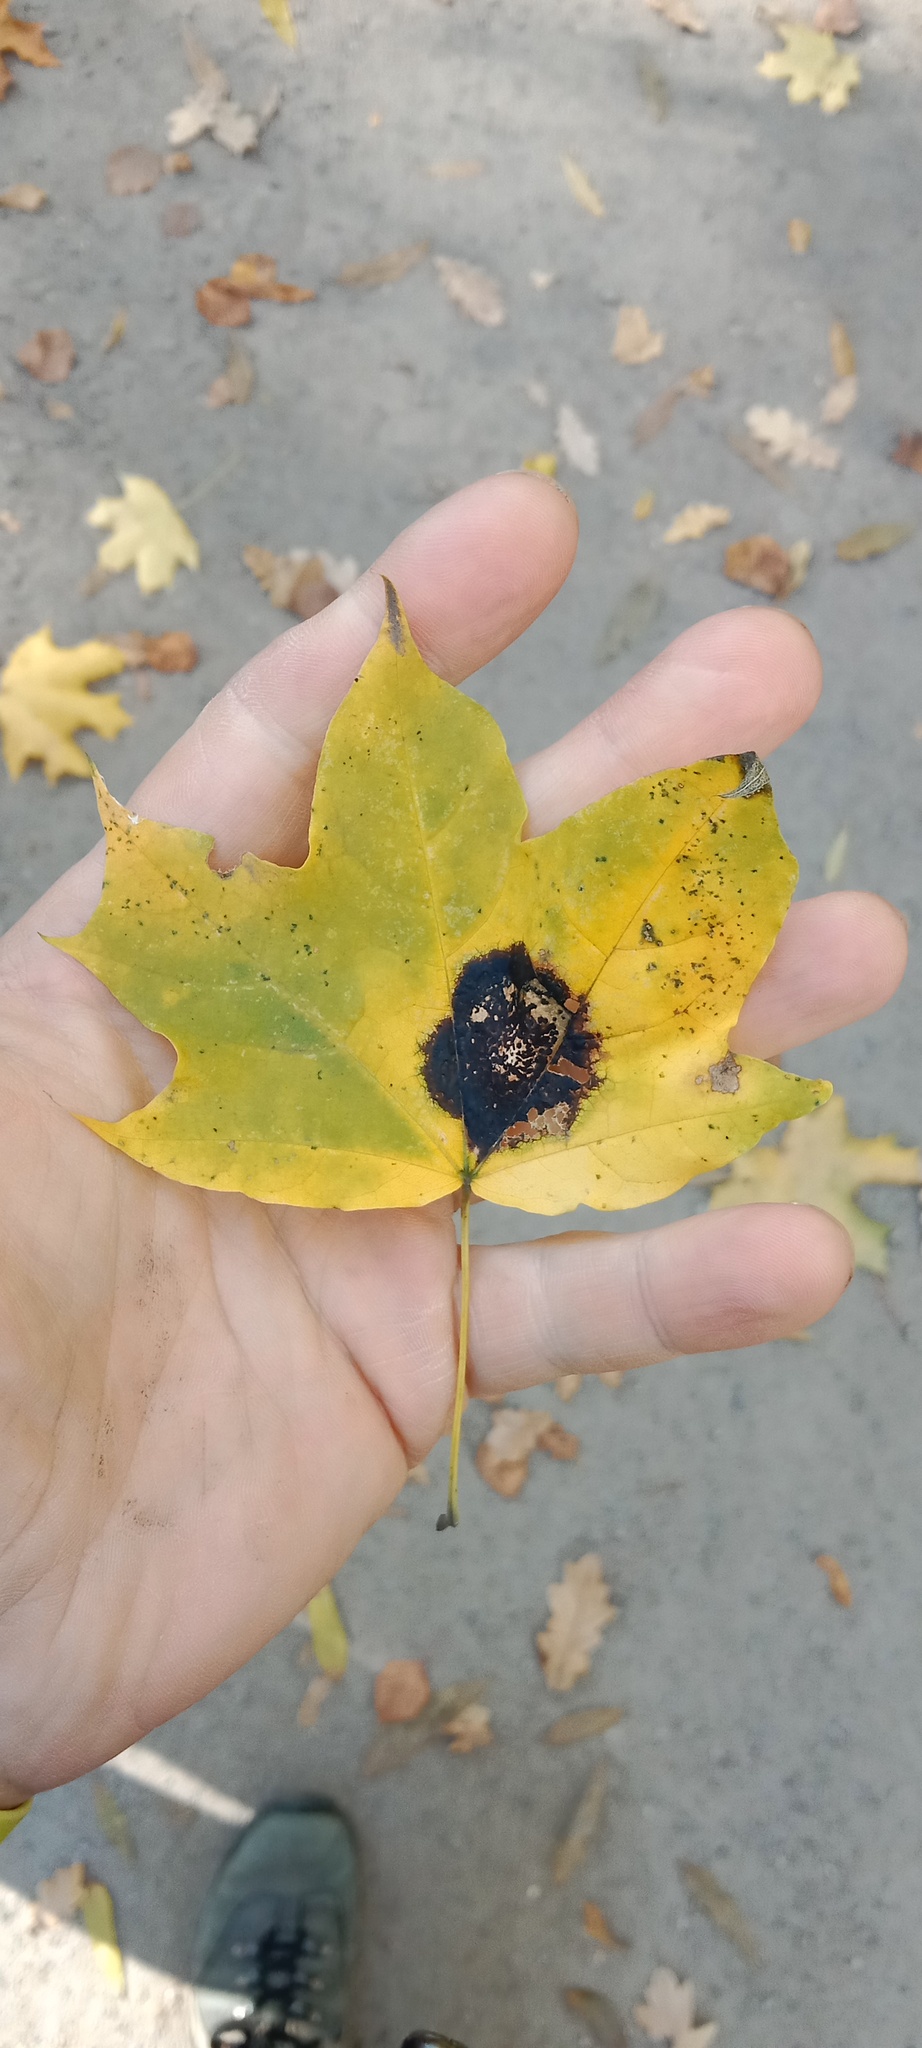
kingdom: Fungi
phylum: Ascomycota
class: Leotiomycetes
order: Rhytismatales
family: Rhytismataceae
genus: Rhytisma
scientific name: Rhytisma acerinum
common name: European tar spot
